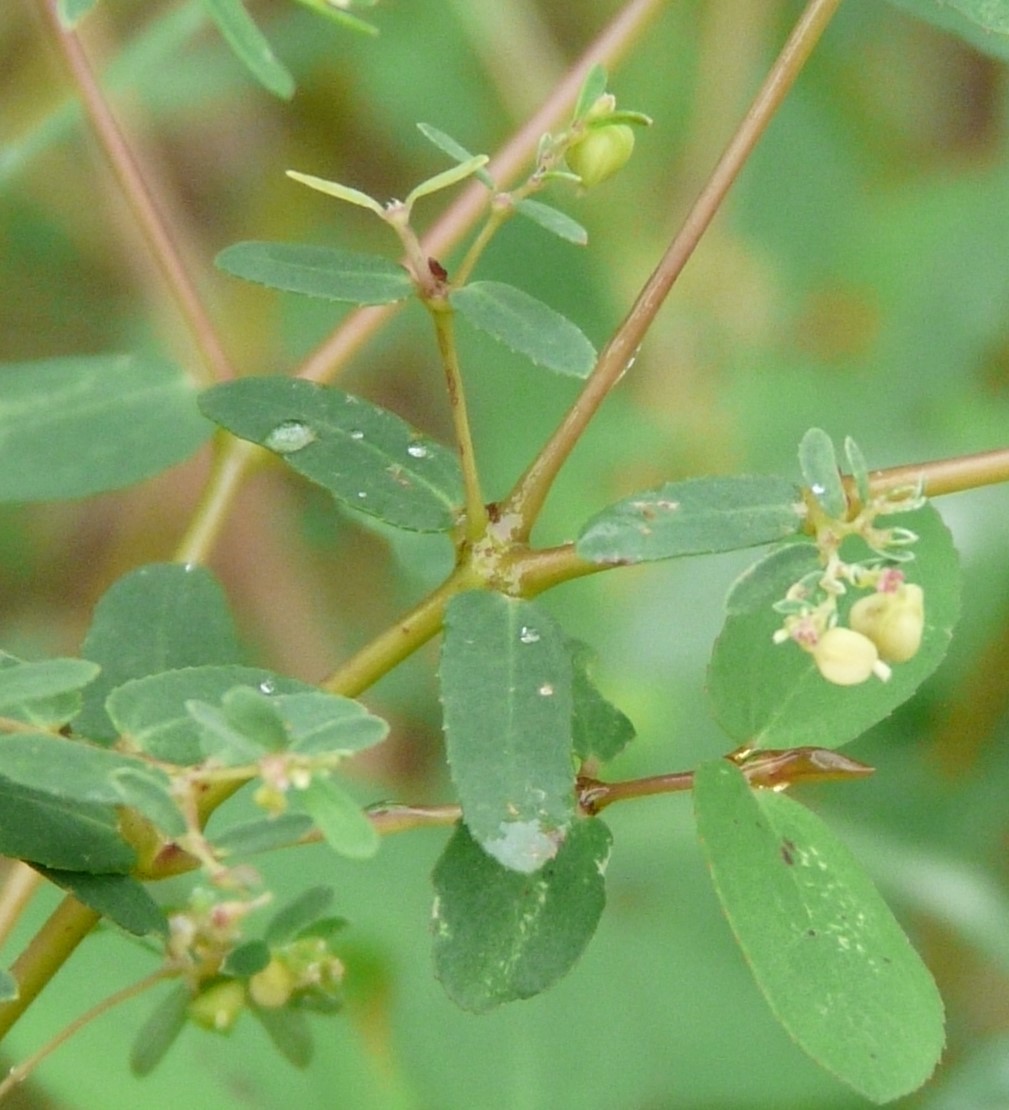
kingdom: Plantae
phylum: Tracheophyta
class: Magnoliopsida
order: Malpighiales
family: Euphorbiaceae
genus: Euphorbia
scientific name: Euphorbia hyssopifolia
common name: Hyssopleaf sandmat
